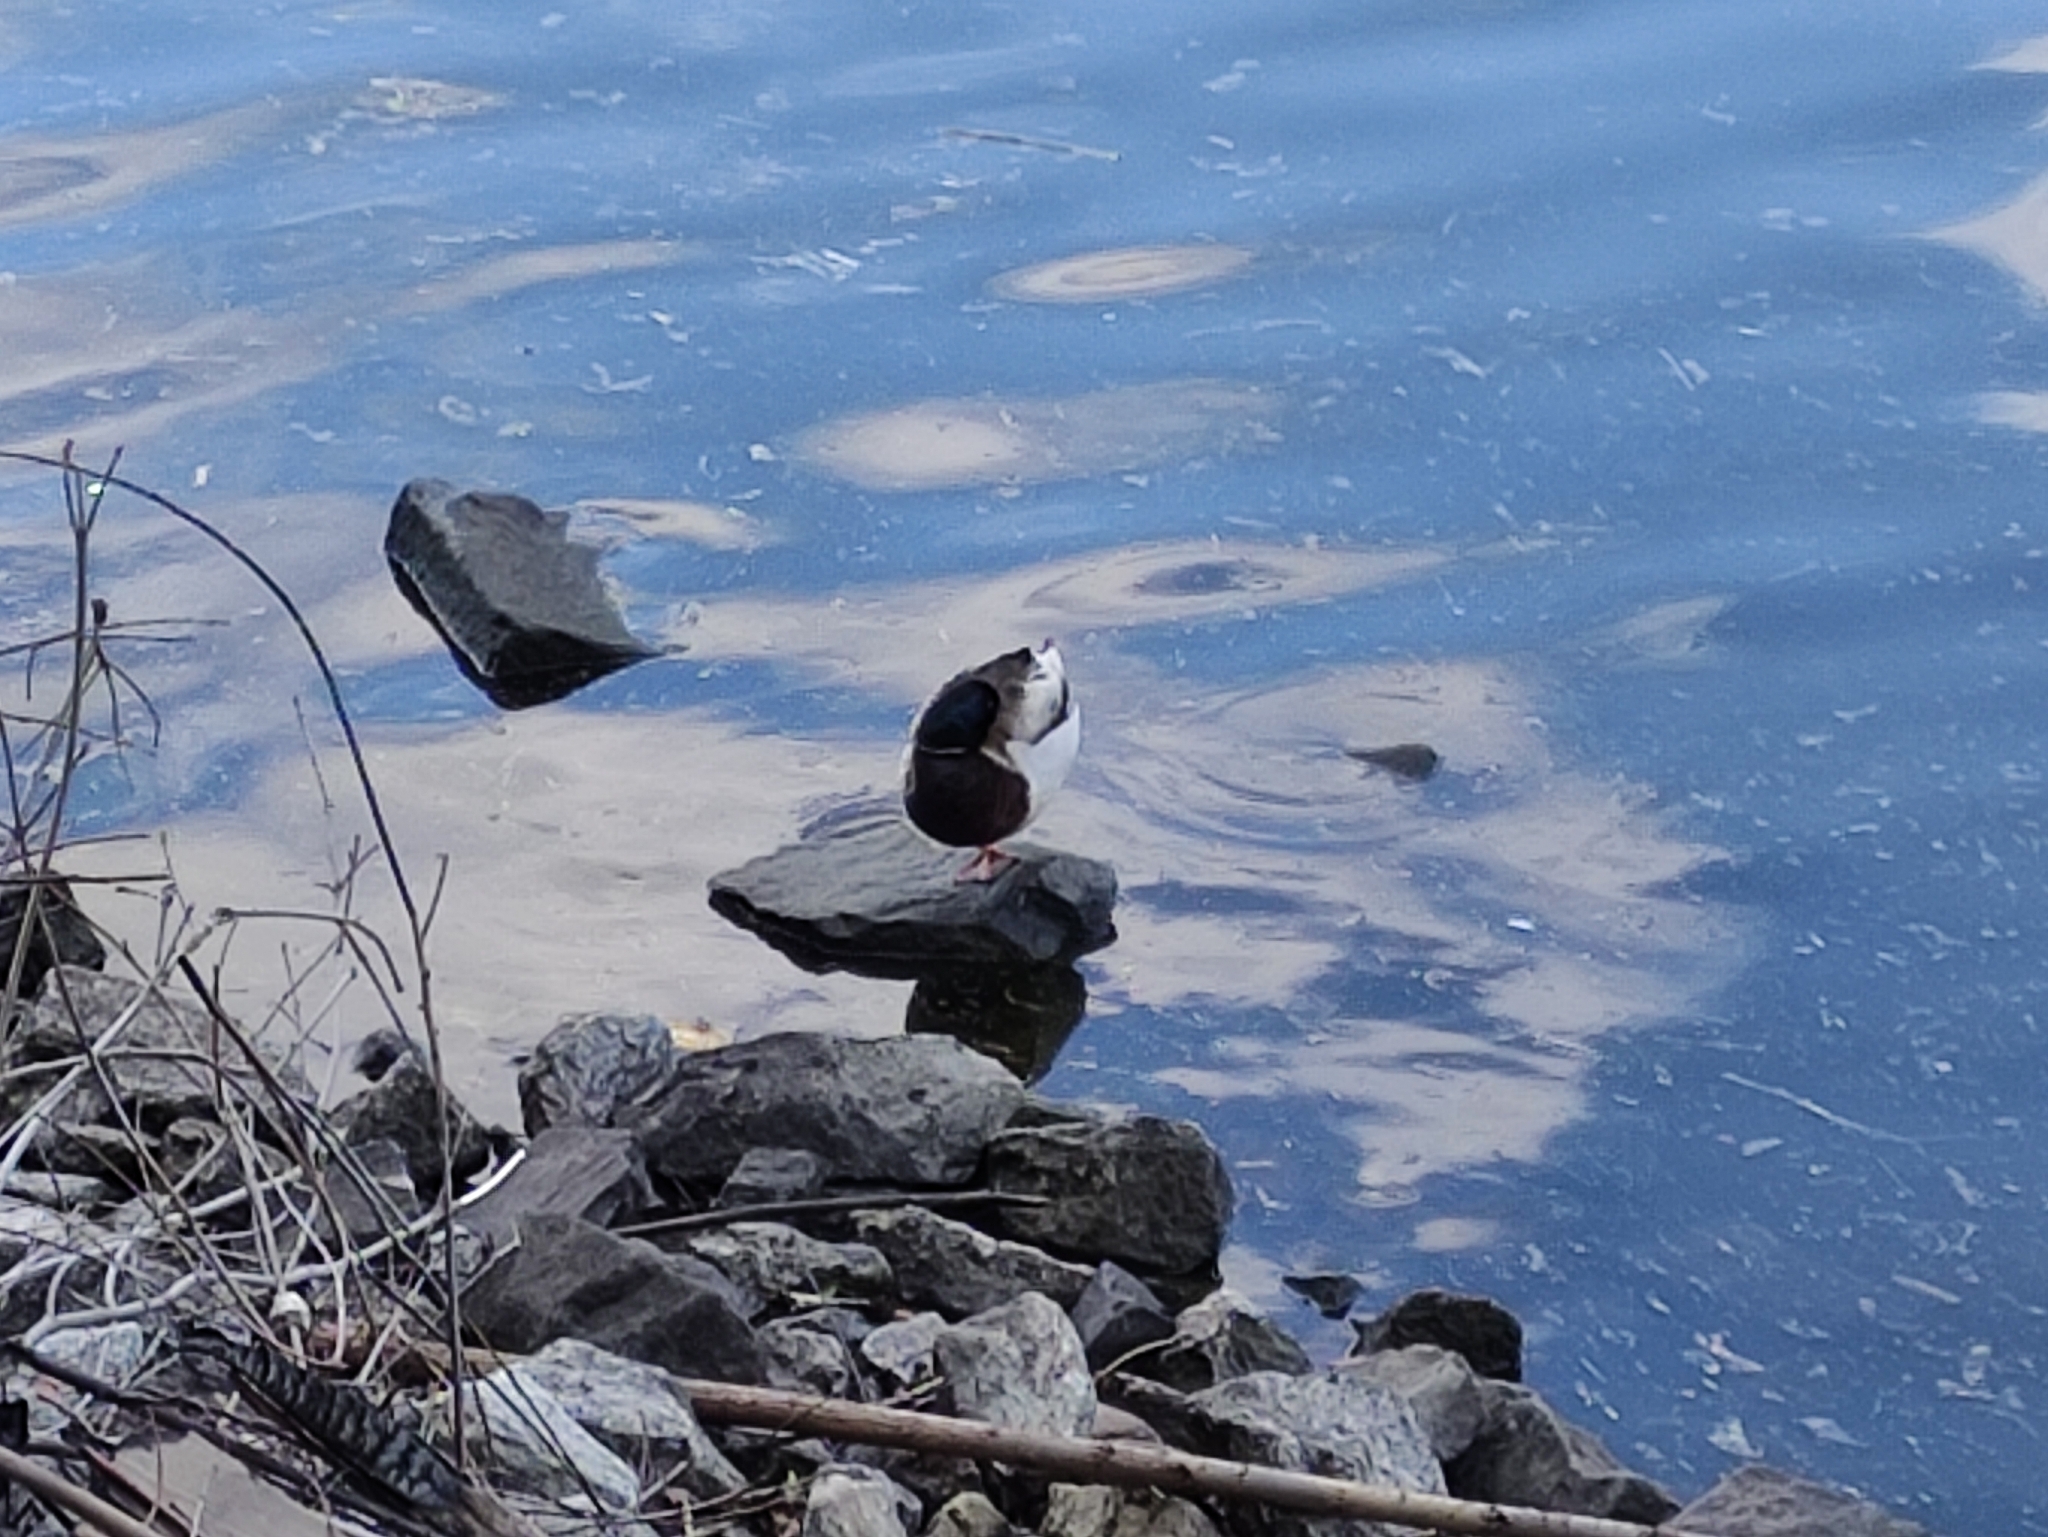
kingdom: Animalia
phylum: Chordata
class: Aves
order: Anseriformes
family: Anatidae
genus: Anas
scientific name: Anas platyrhynchos
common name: Mallard
